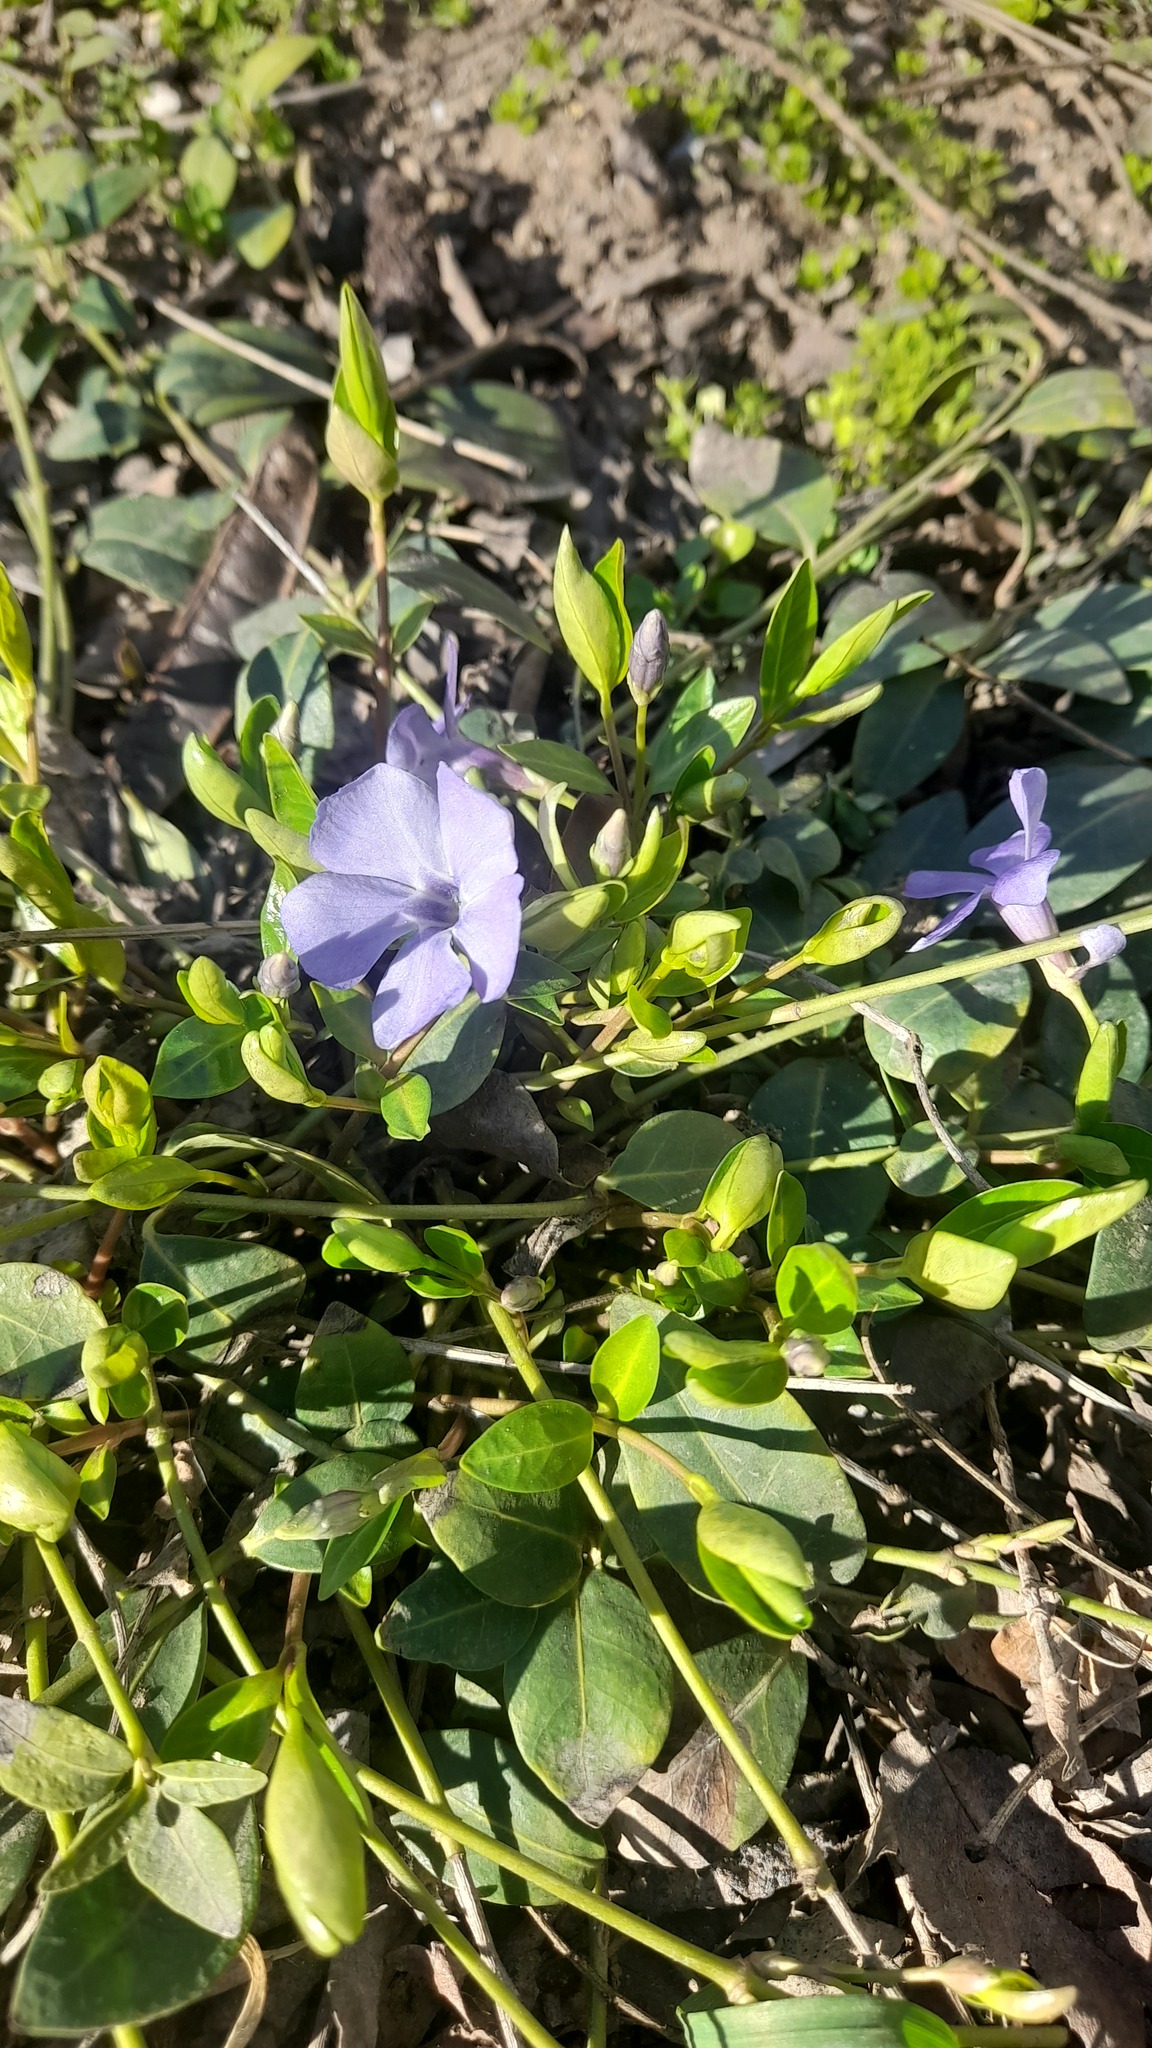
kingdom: Plantae
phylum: Tracheophyta
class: Magnoliopsida
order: Gentianales
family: Apocynaceae
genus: Vinca
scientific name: Vinca major
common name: Greater periwinkle
